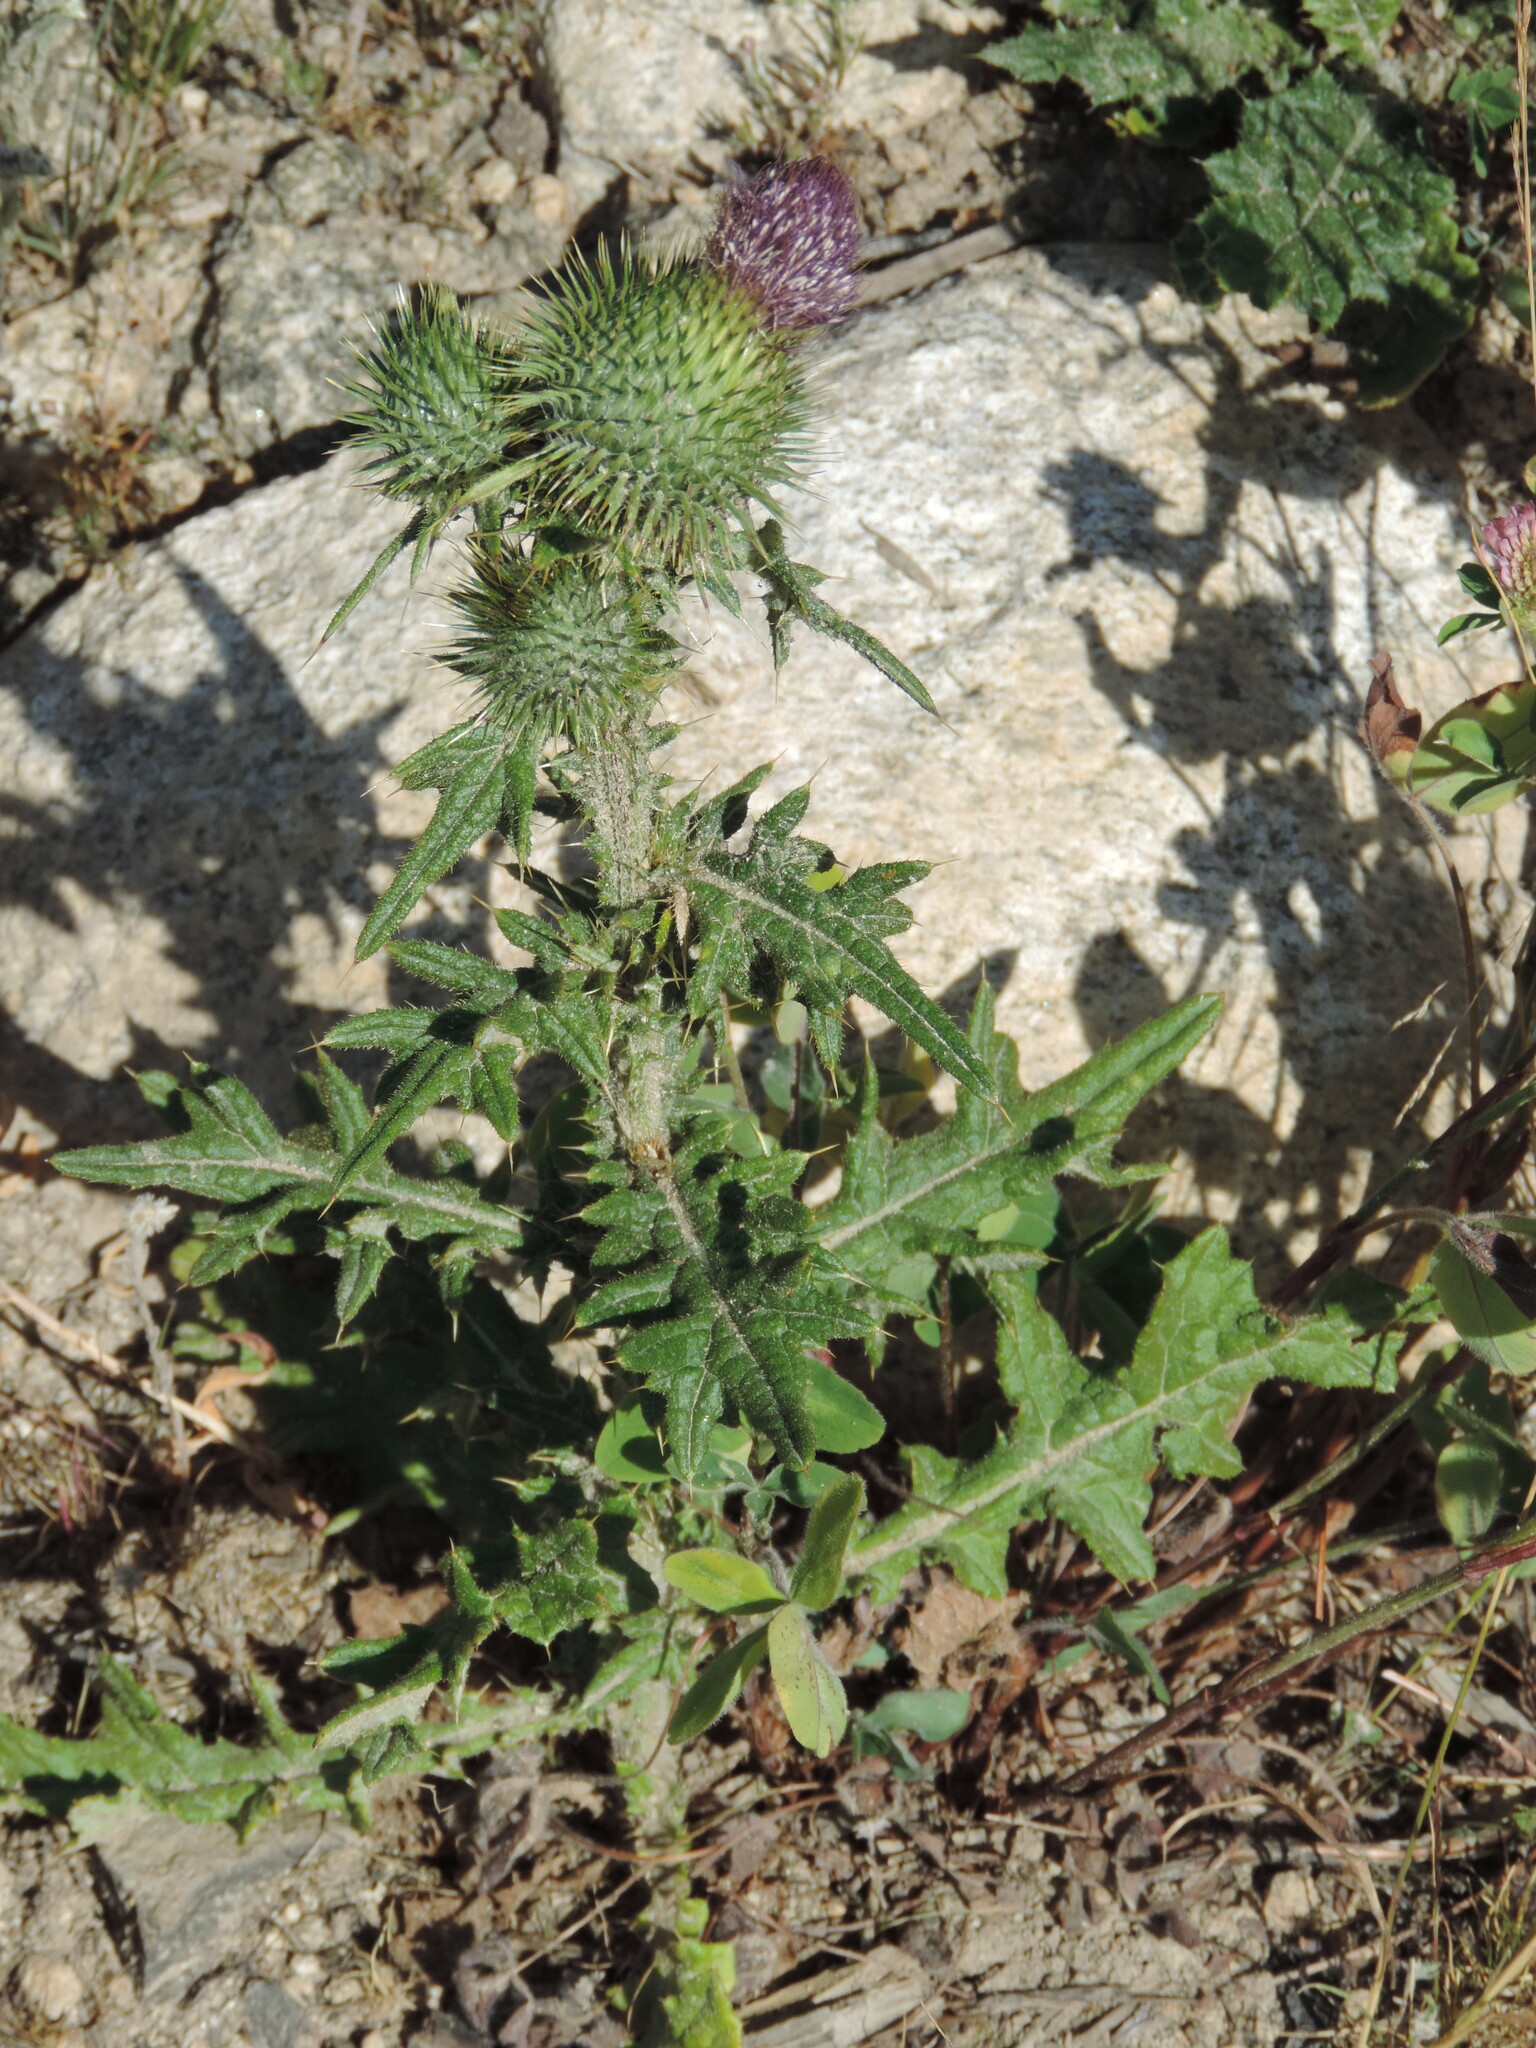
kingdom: Plantae
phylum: Tracheophyta
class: Magnoliopsida
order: Asterales
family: Asteraceae
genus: Cirsium
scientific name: Cirsium vulgare
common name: Bull thistle
